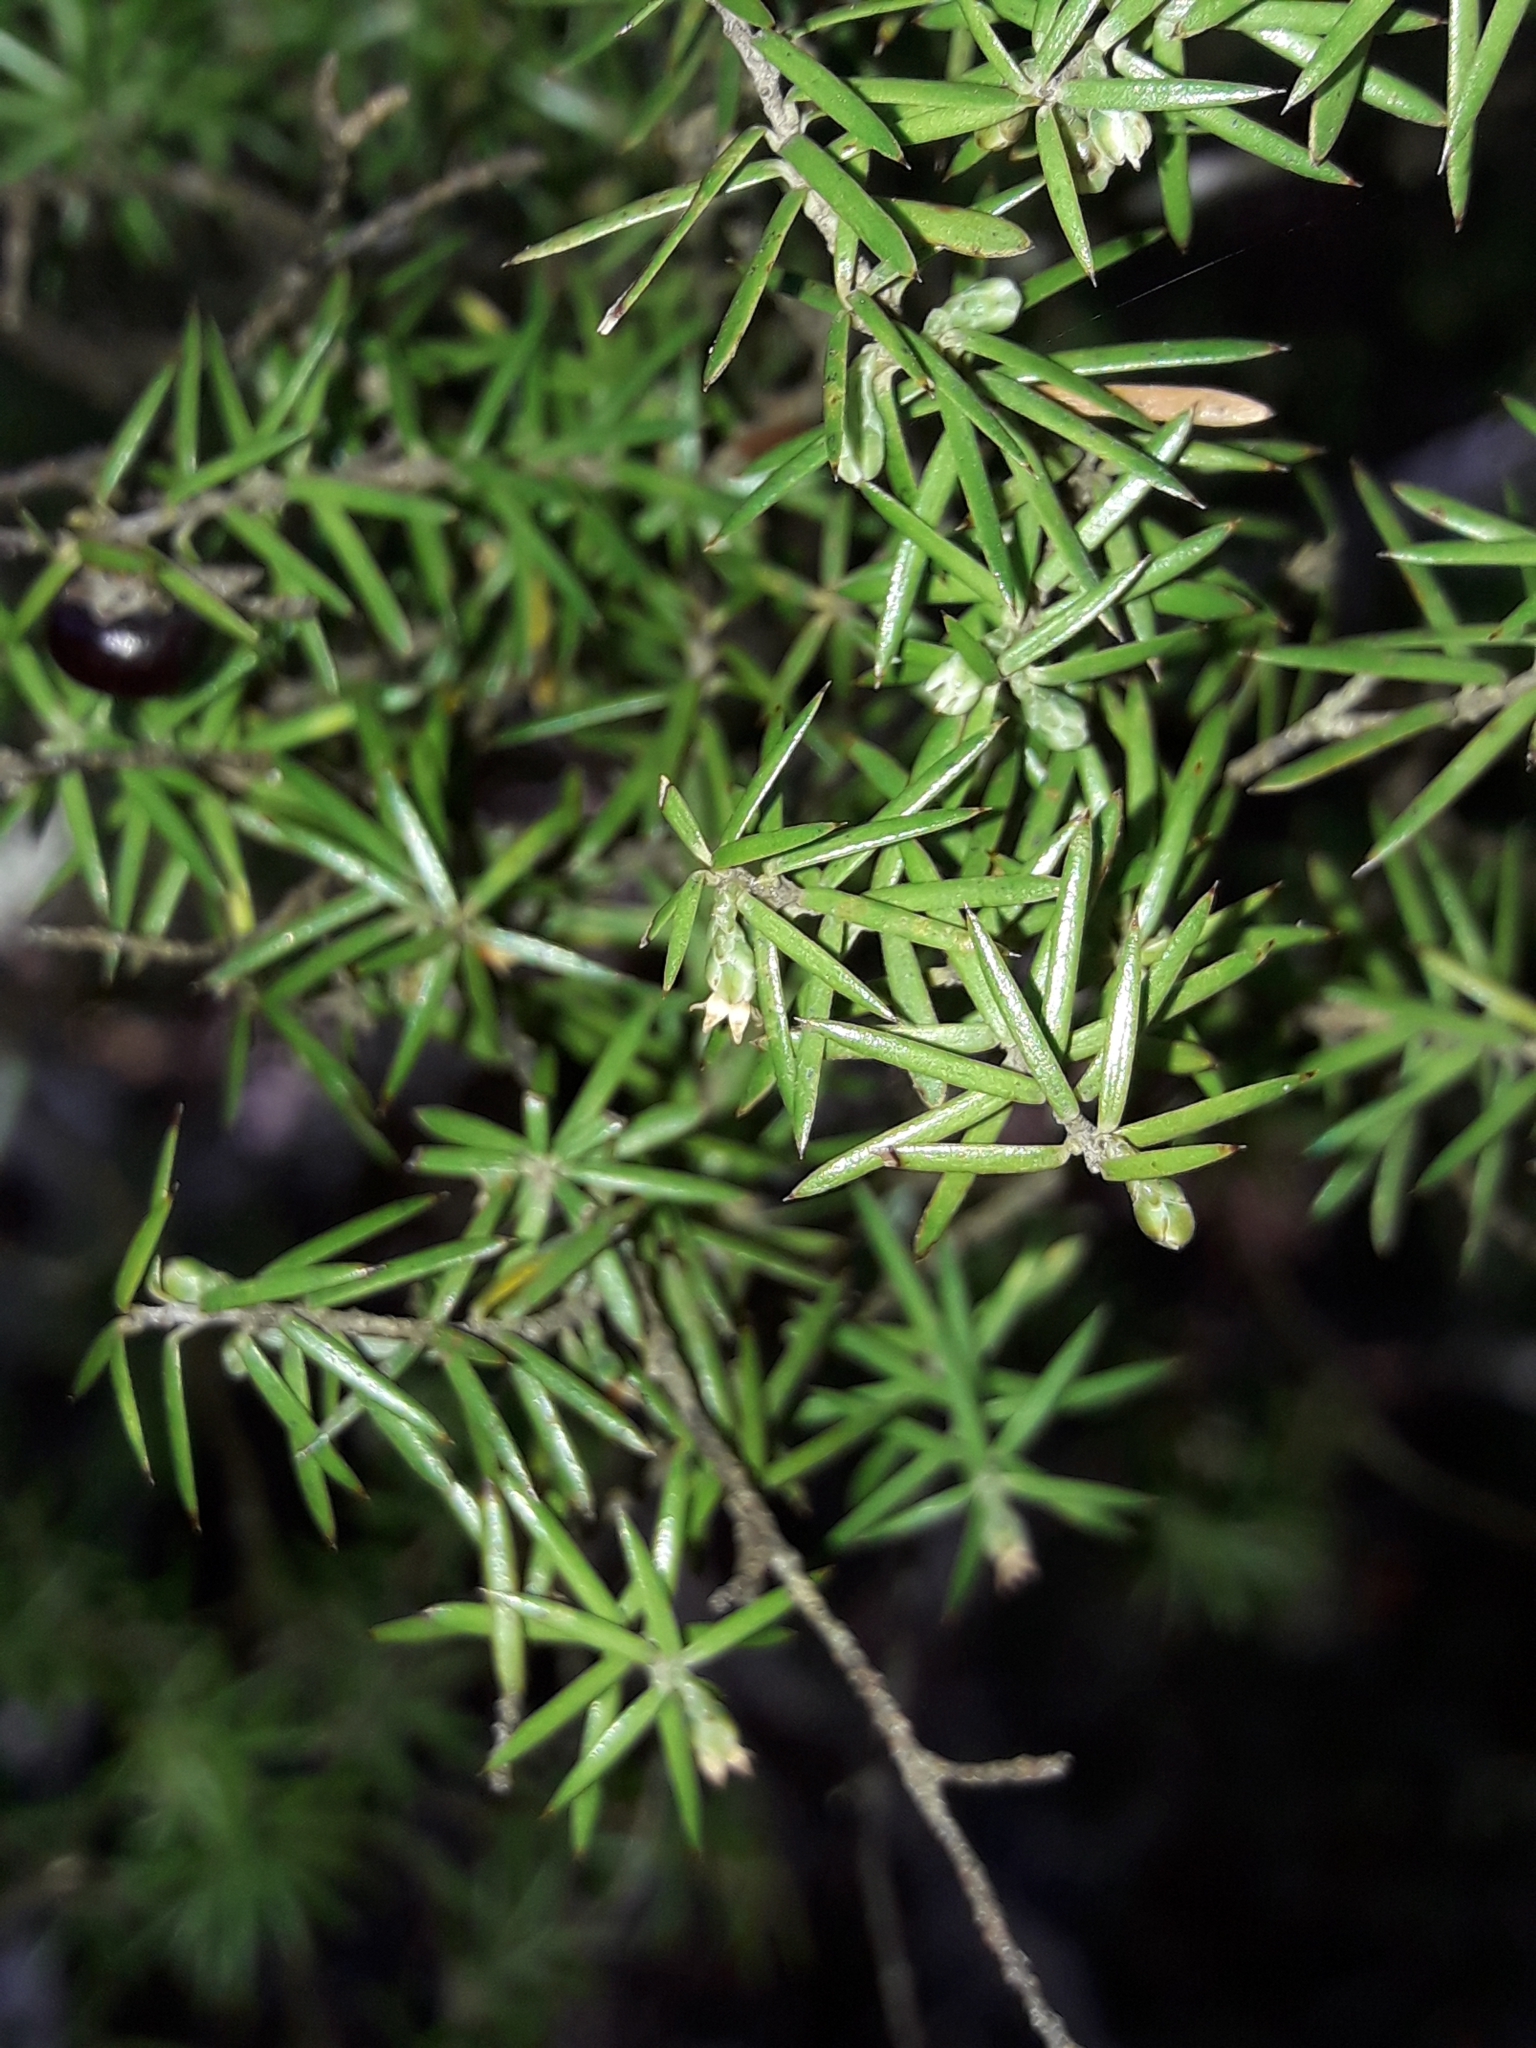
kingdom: Plantae
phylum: Tracheophyta
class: Magnoliopsida
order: Ericales
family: Ericaceae
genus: Leptecophylla
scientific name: Leptecophylla juniperina
